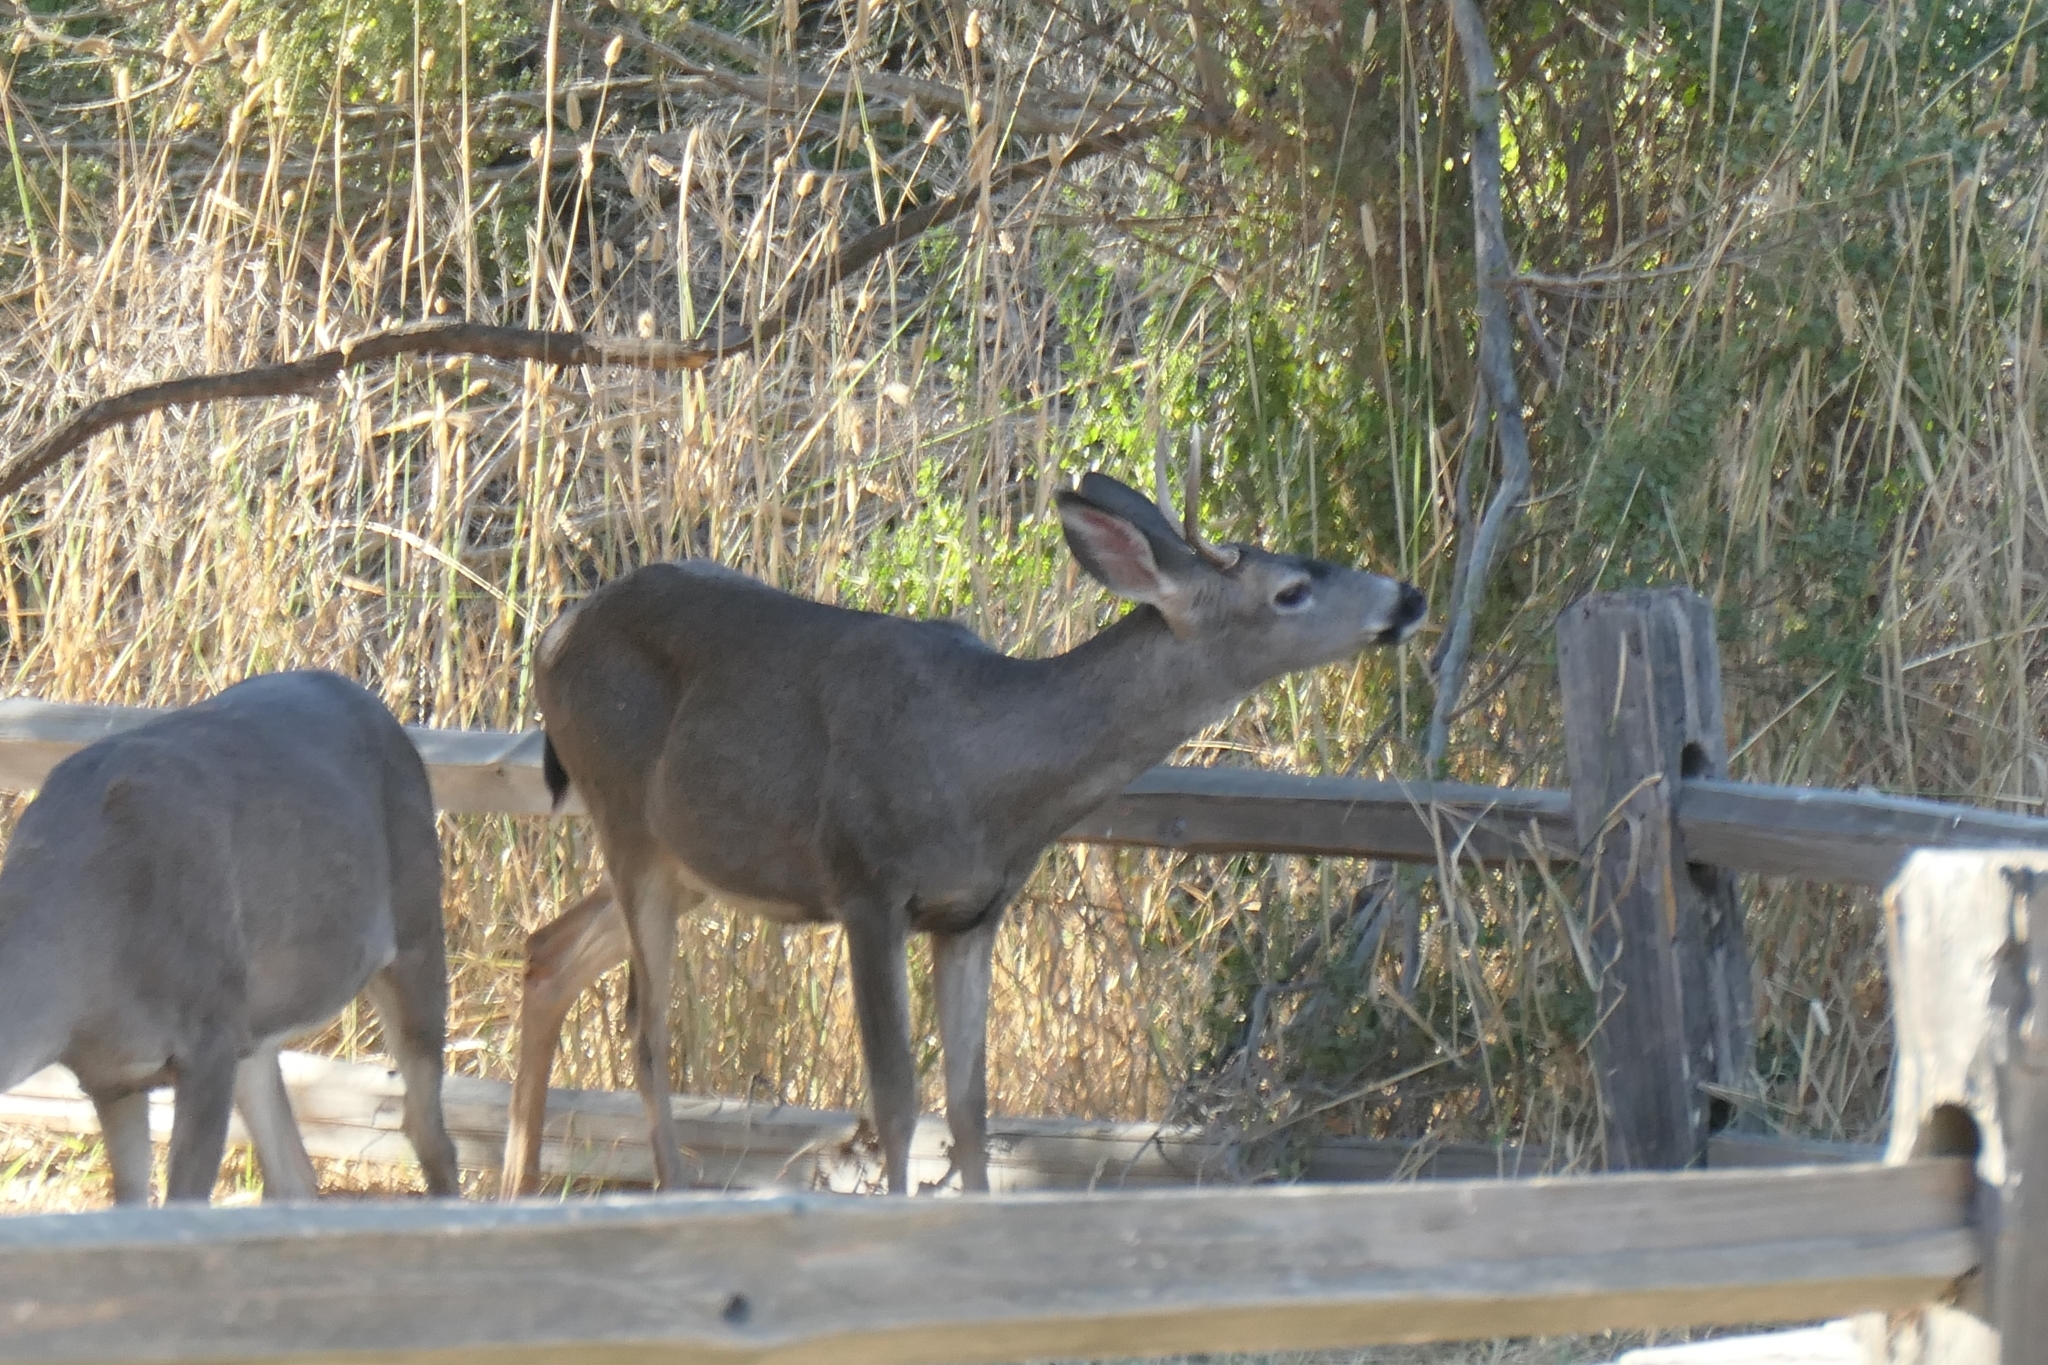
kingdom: Animalia
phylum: Chordata
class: Mammalia
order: Artiodactyla
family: Cervidae
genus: Odocoileus
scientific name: Odocoileus hemionus
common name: Mule deer
